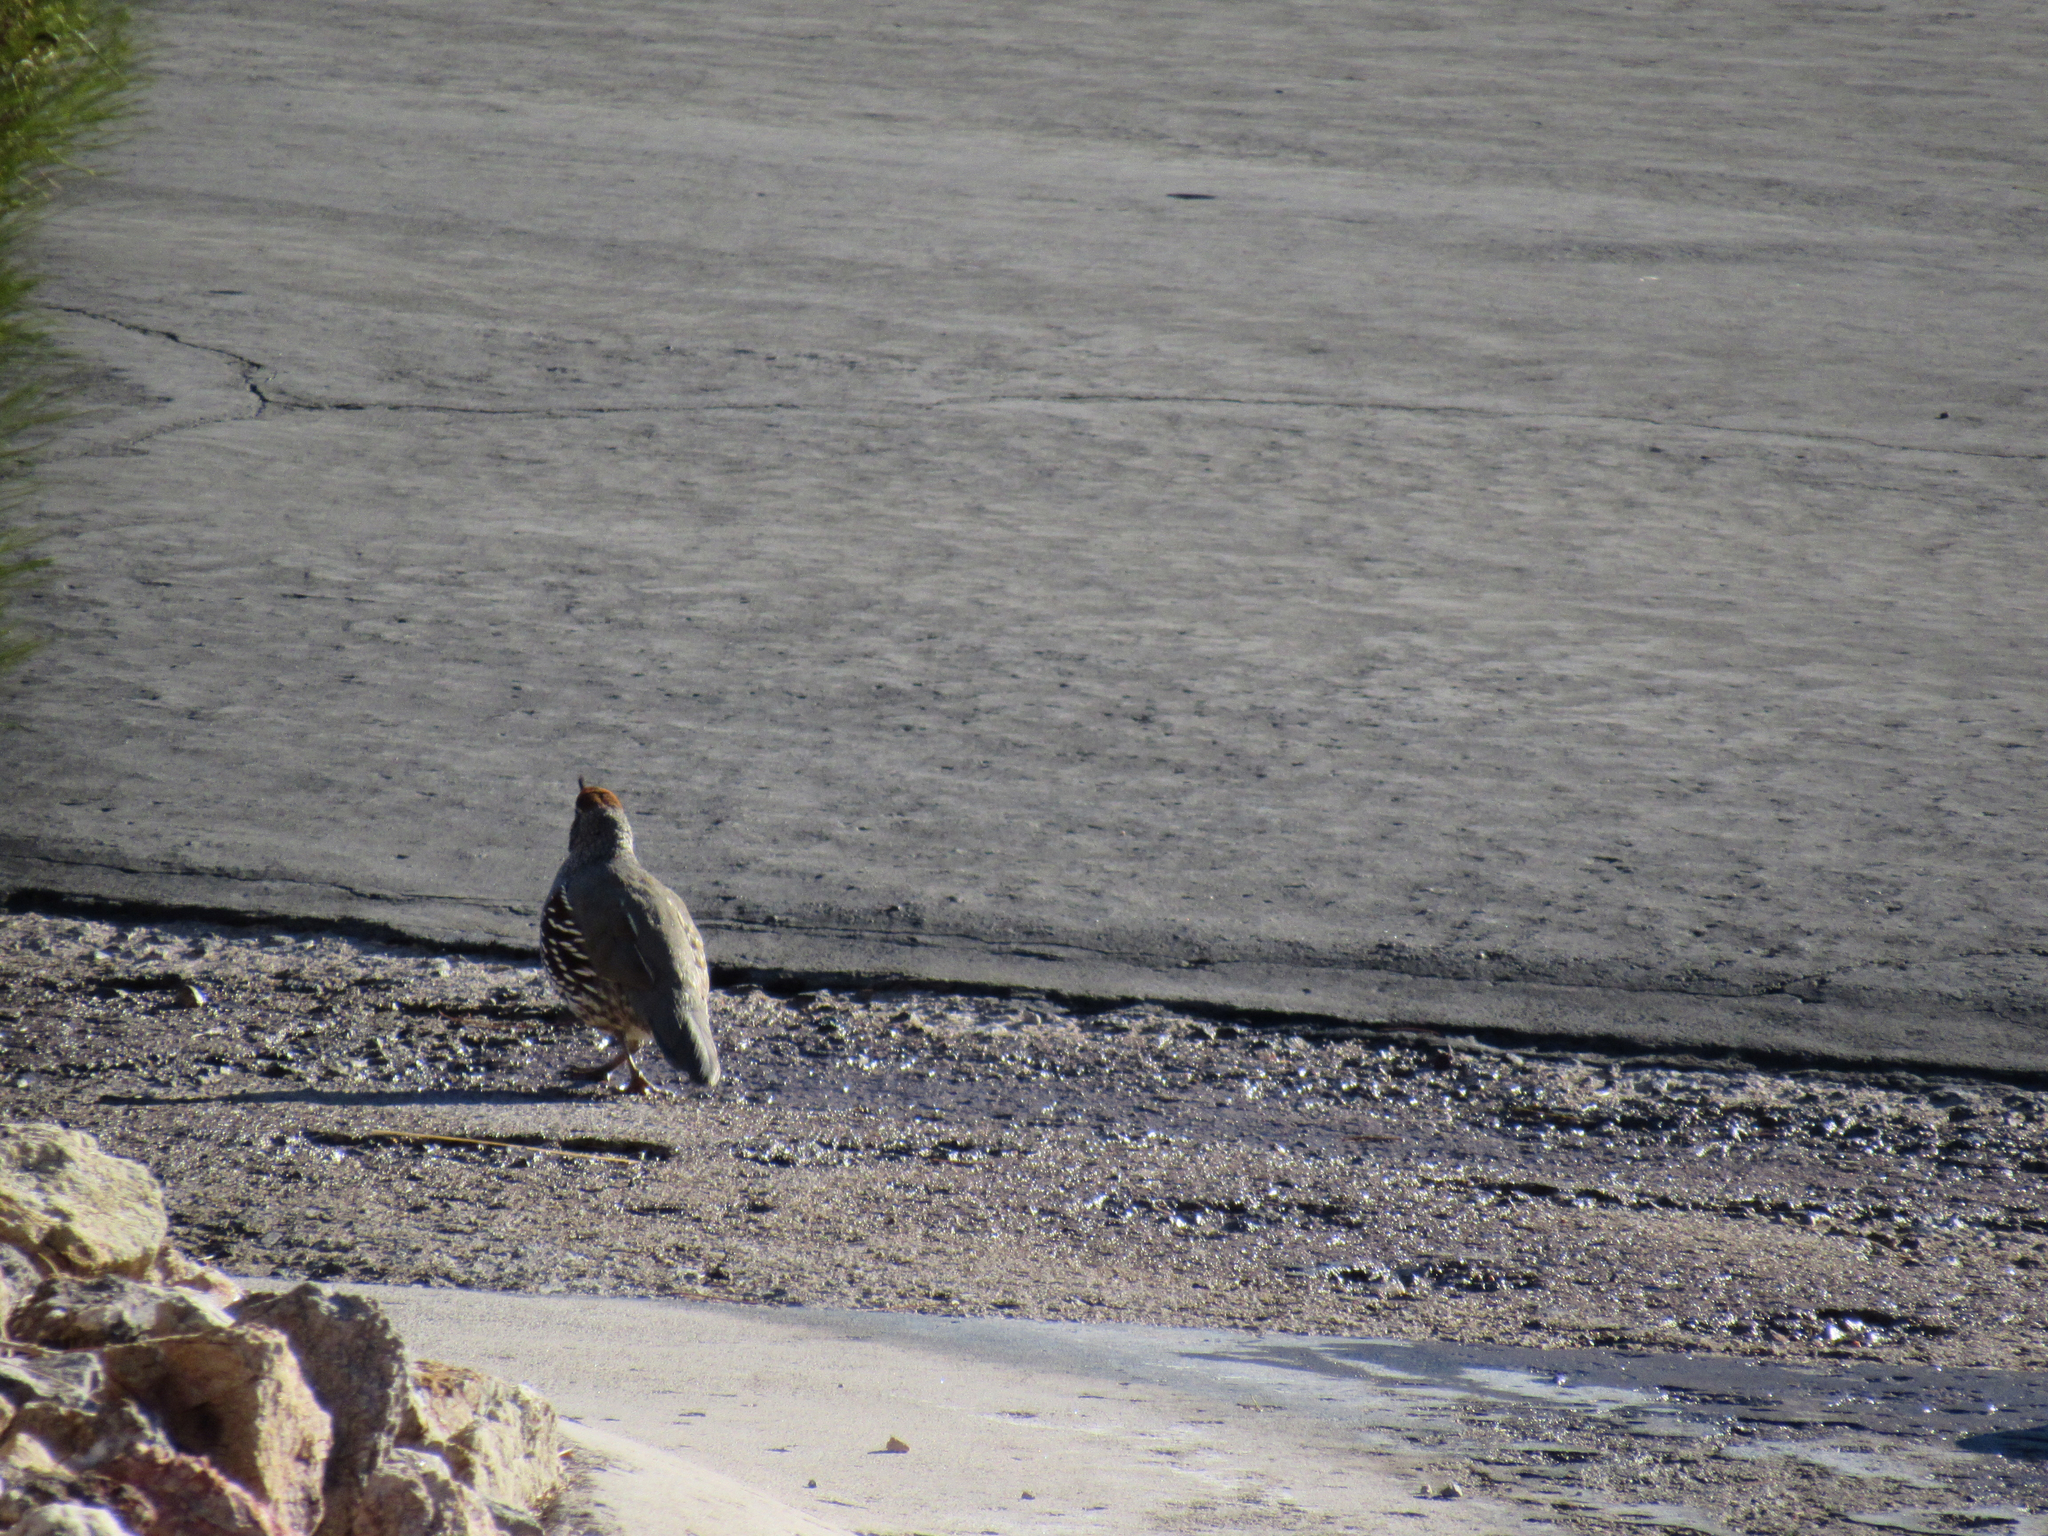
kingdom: Animalia
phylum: Chordata
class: Aves
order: Galliformes
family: Odontophoridae
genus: Callipepla
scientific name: Callipepla gambelii
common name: Gambel's quail
